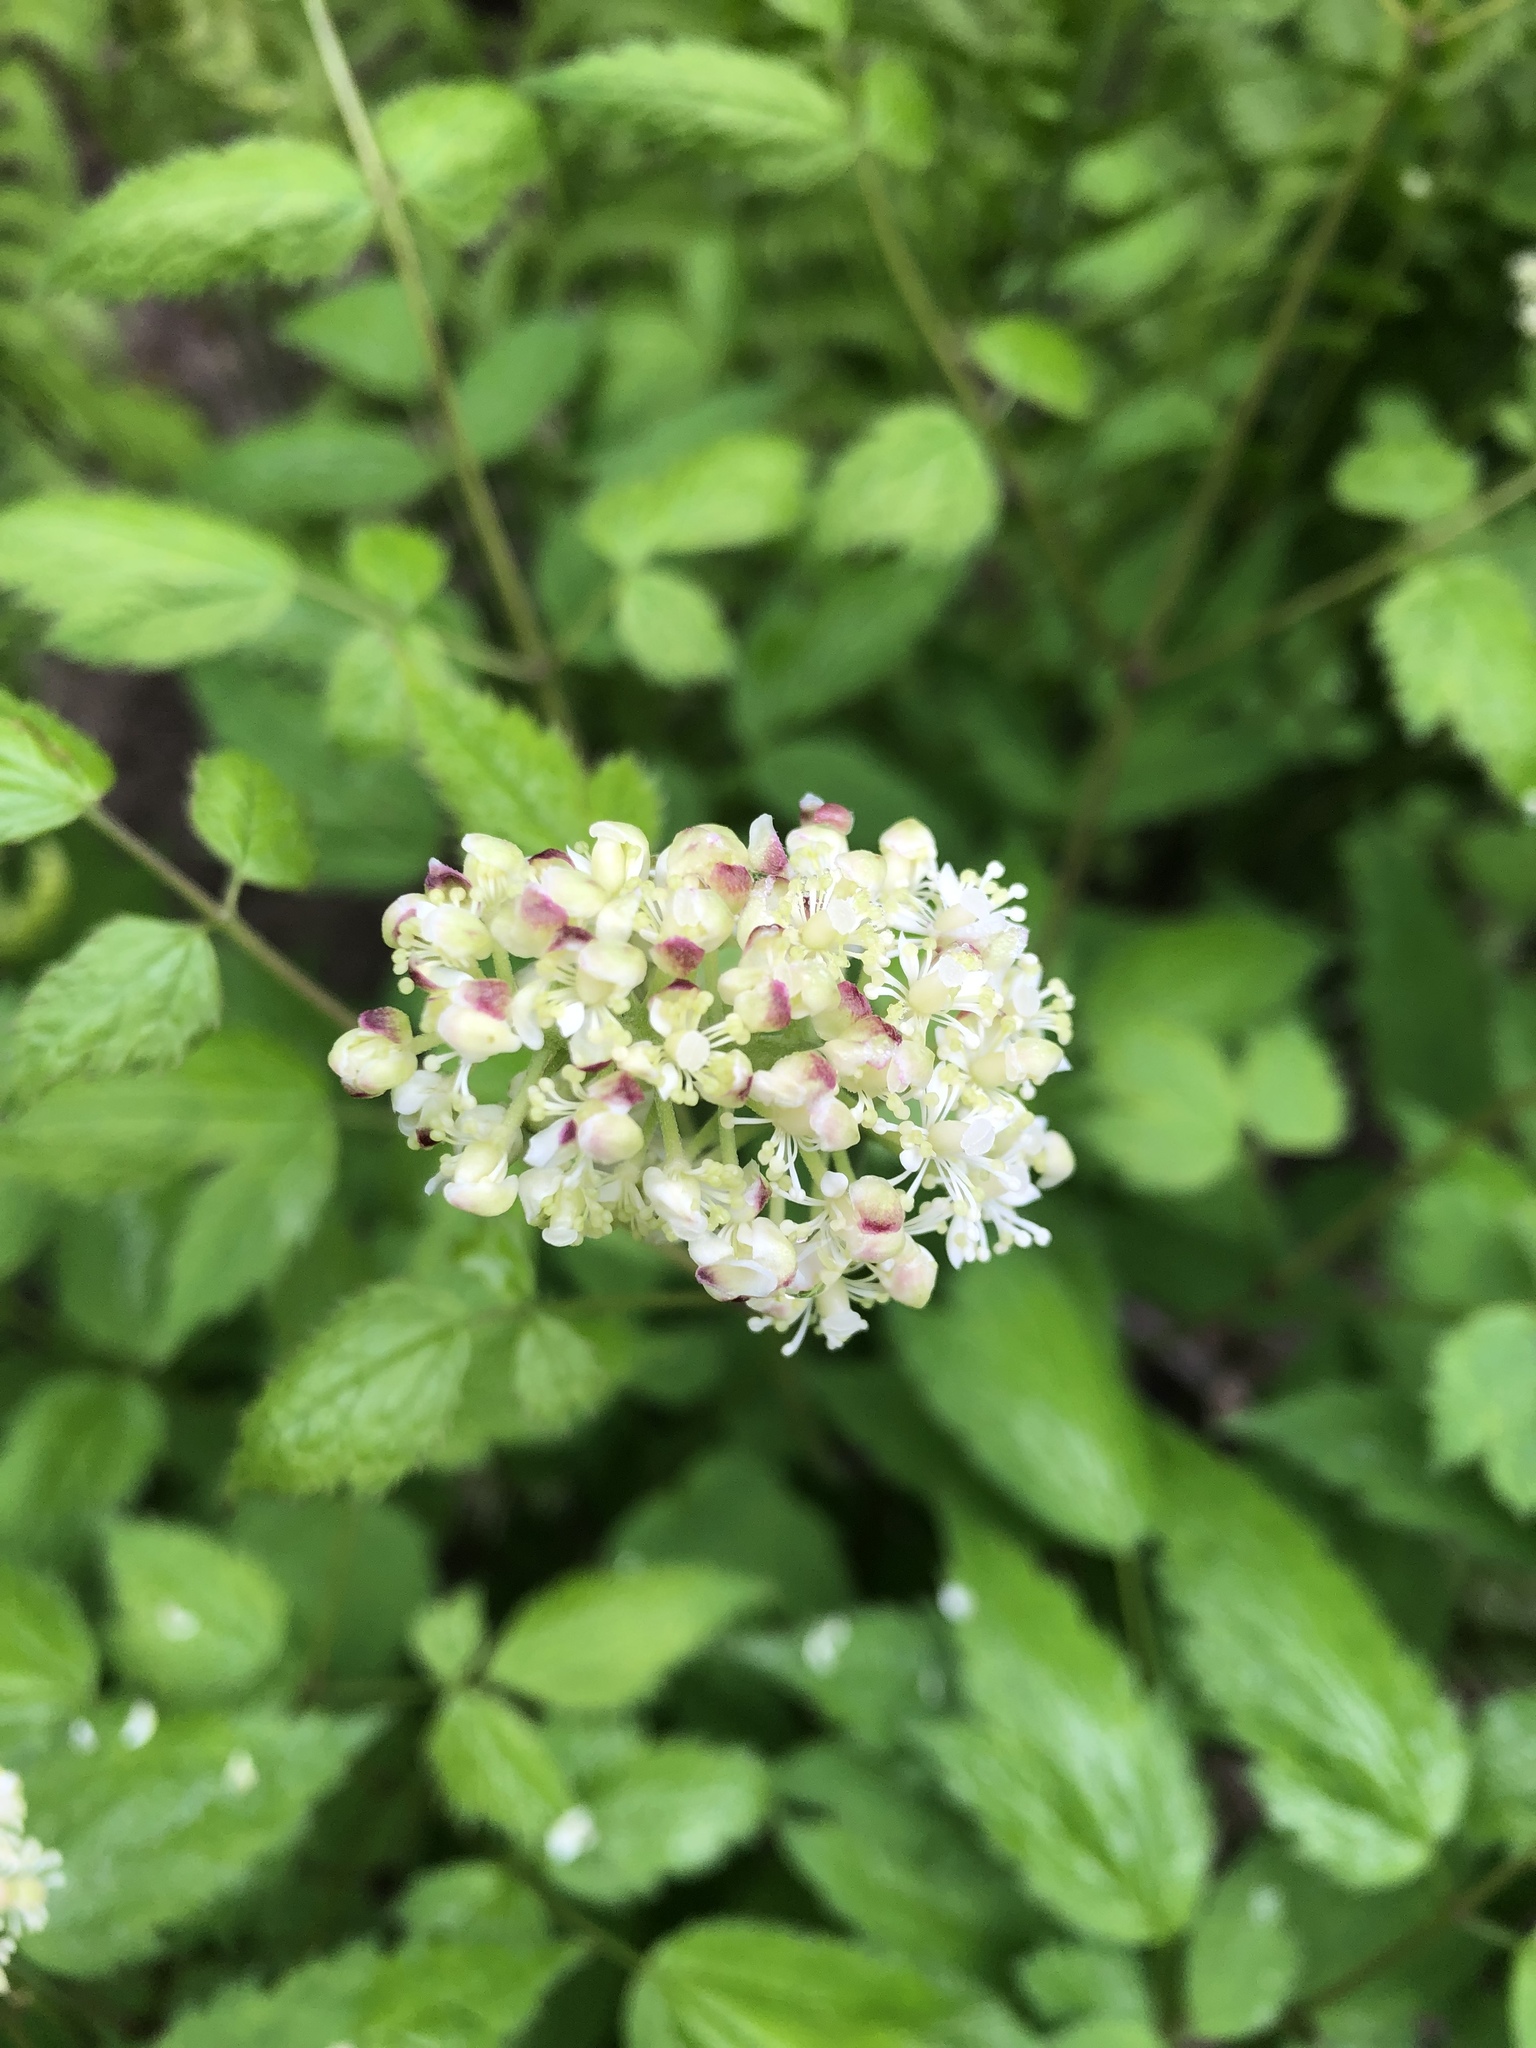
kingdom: Plantae
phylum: Tracheophyta
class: Magnoliopsida
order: Ranunculales
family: Ranunculaceae
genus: Actaea
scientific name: Actaea rubra
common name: Red baneberry
